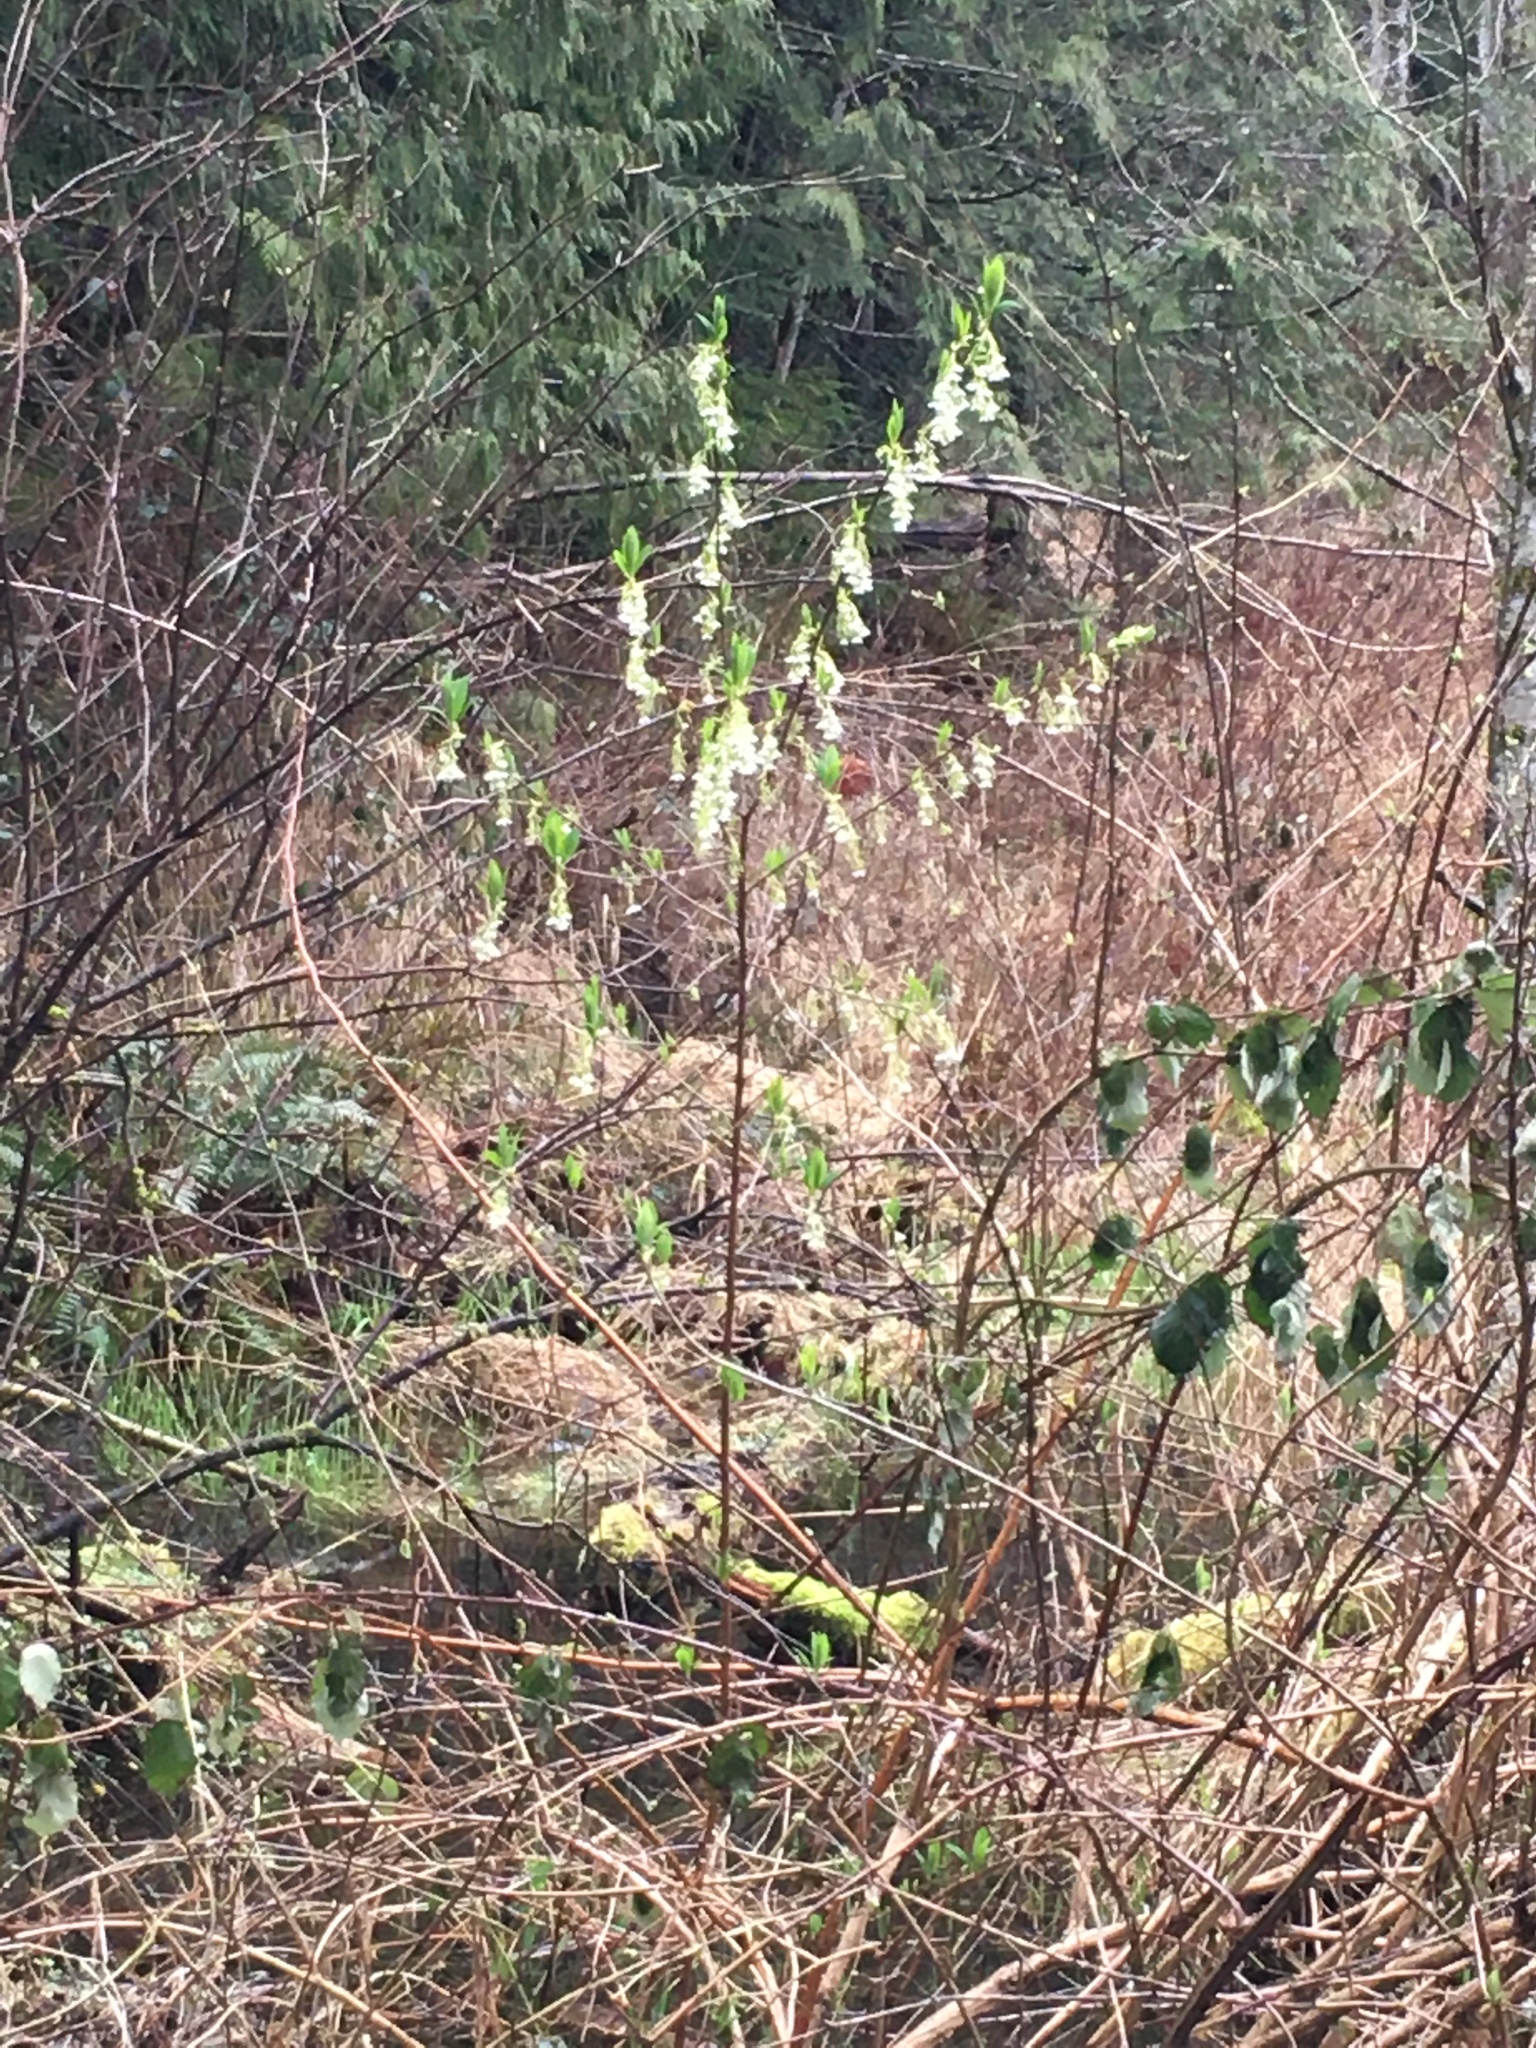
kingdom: Plantae
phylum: Tracheophyta
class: Magnoliopsida
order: Rosales
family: Rosaceae
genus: Oemleria
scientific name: Oemleria cerasiformis
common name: Osoberry
